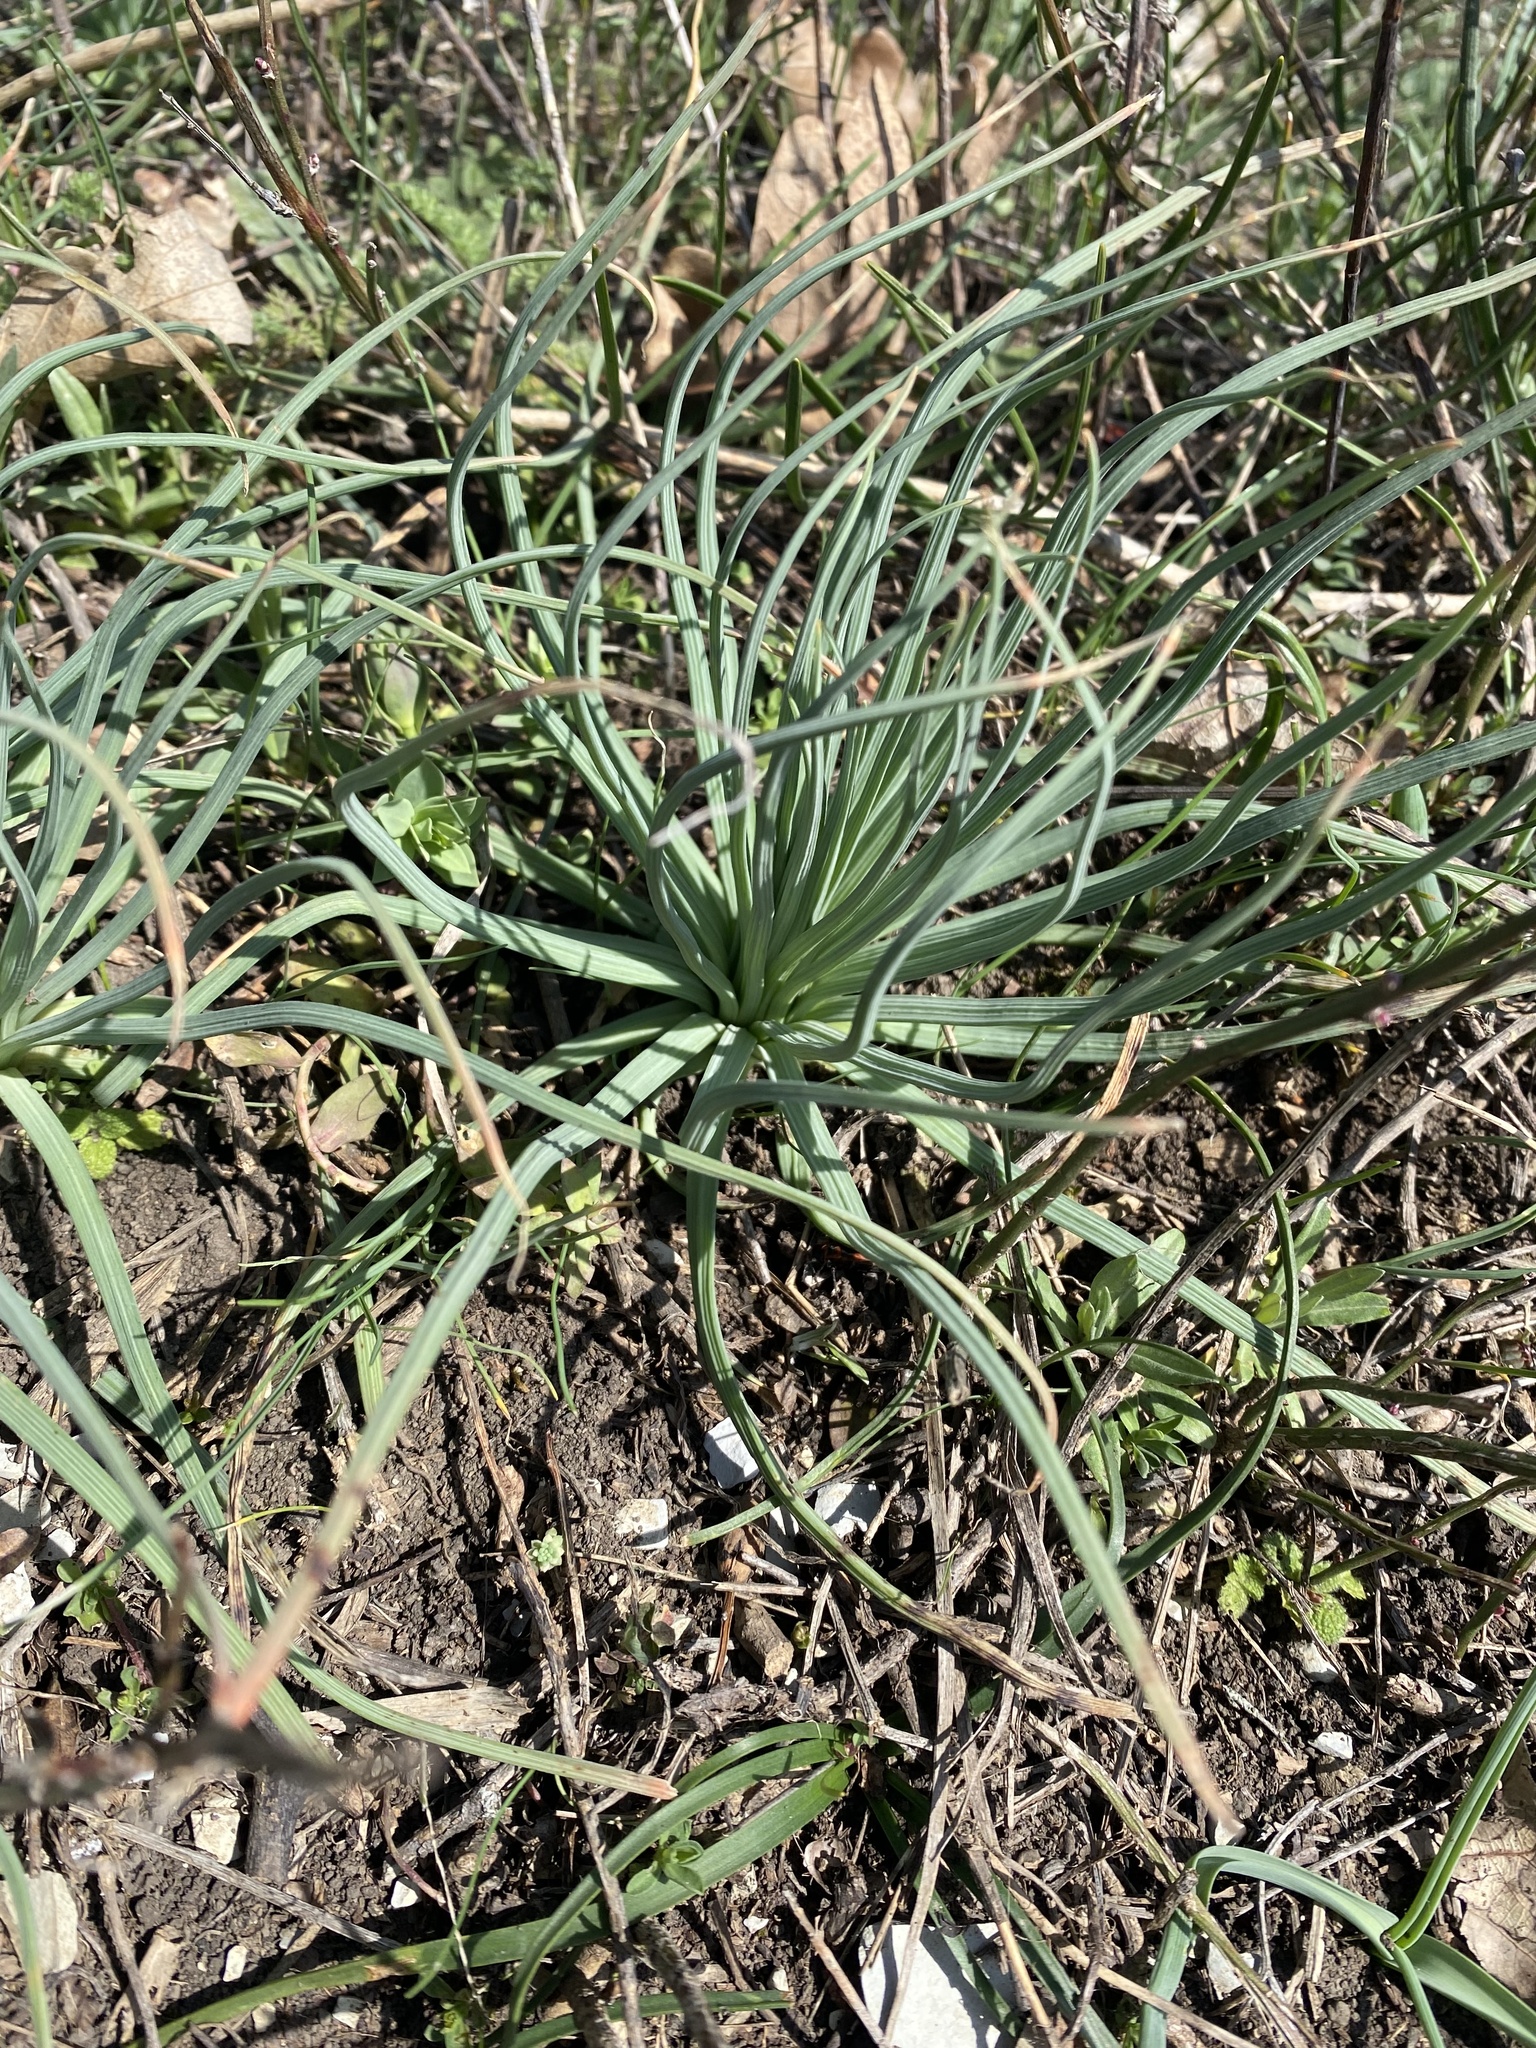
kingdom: Plantae
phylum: Tracheophyta
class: Liliopsida
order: Asparagales
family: Asphodelaceae
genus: Asphodeline
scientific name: Asphodeline lutea
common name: Yellow asphodel
